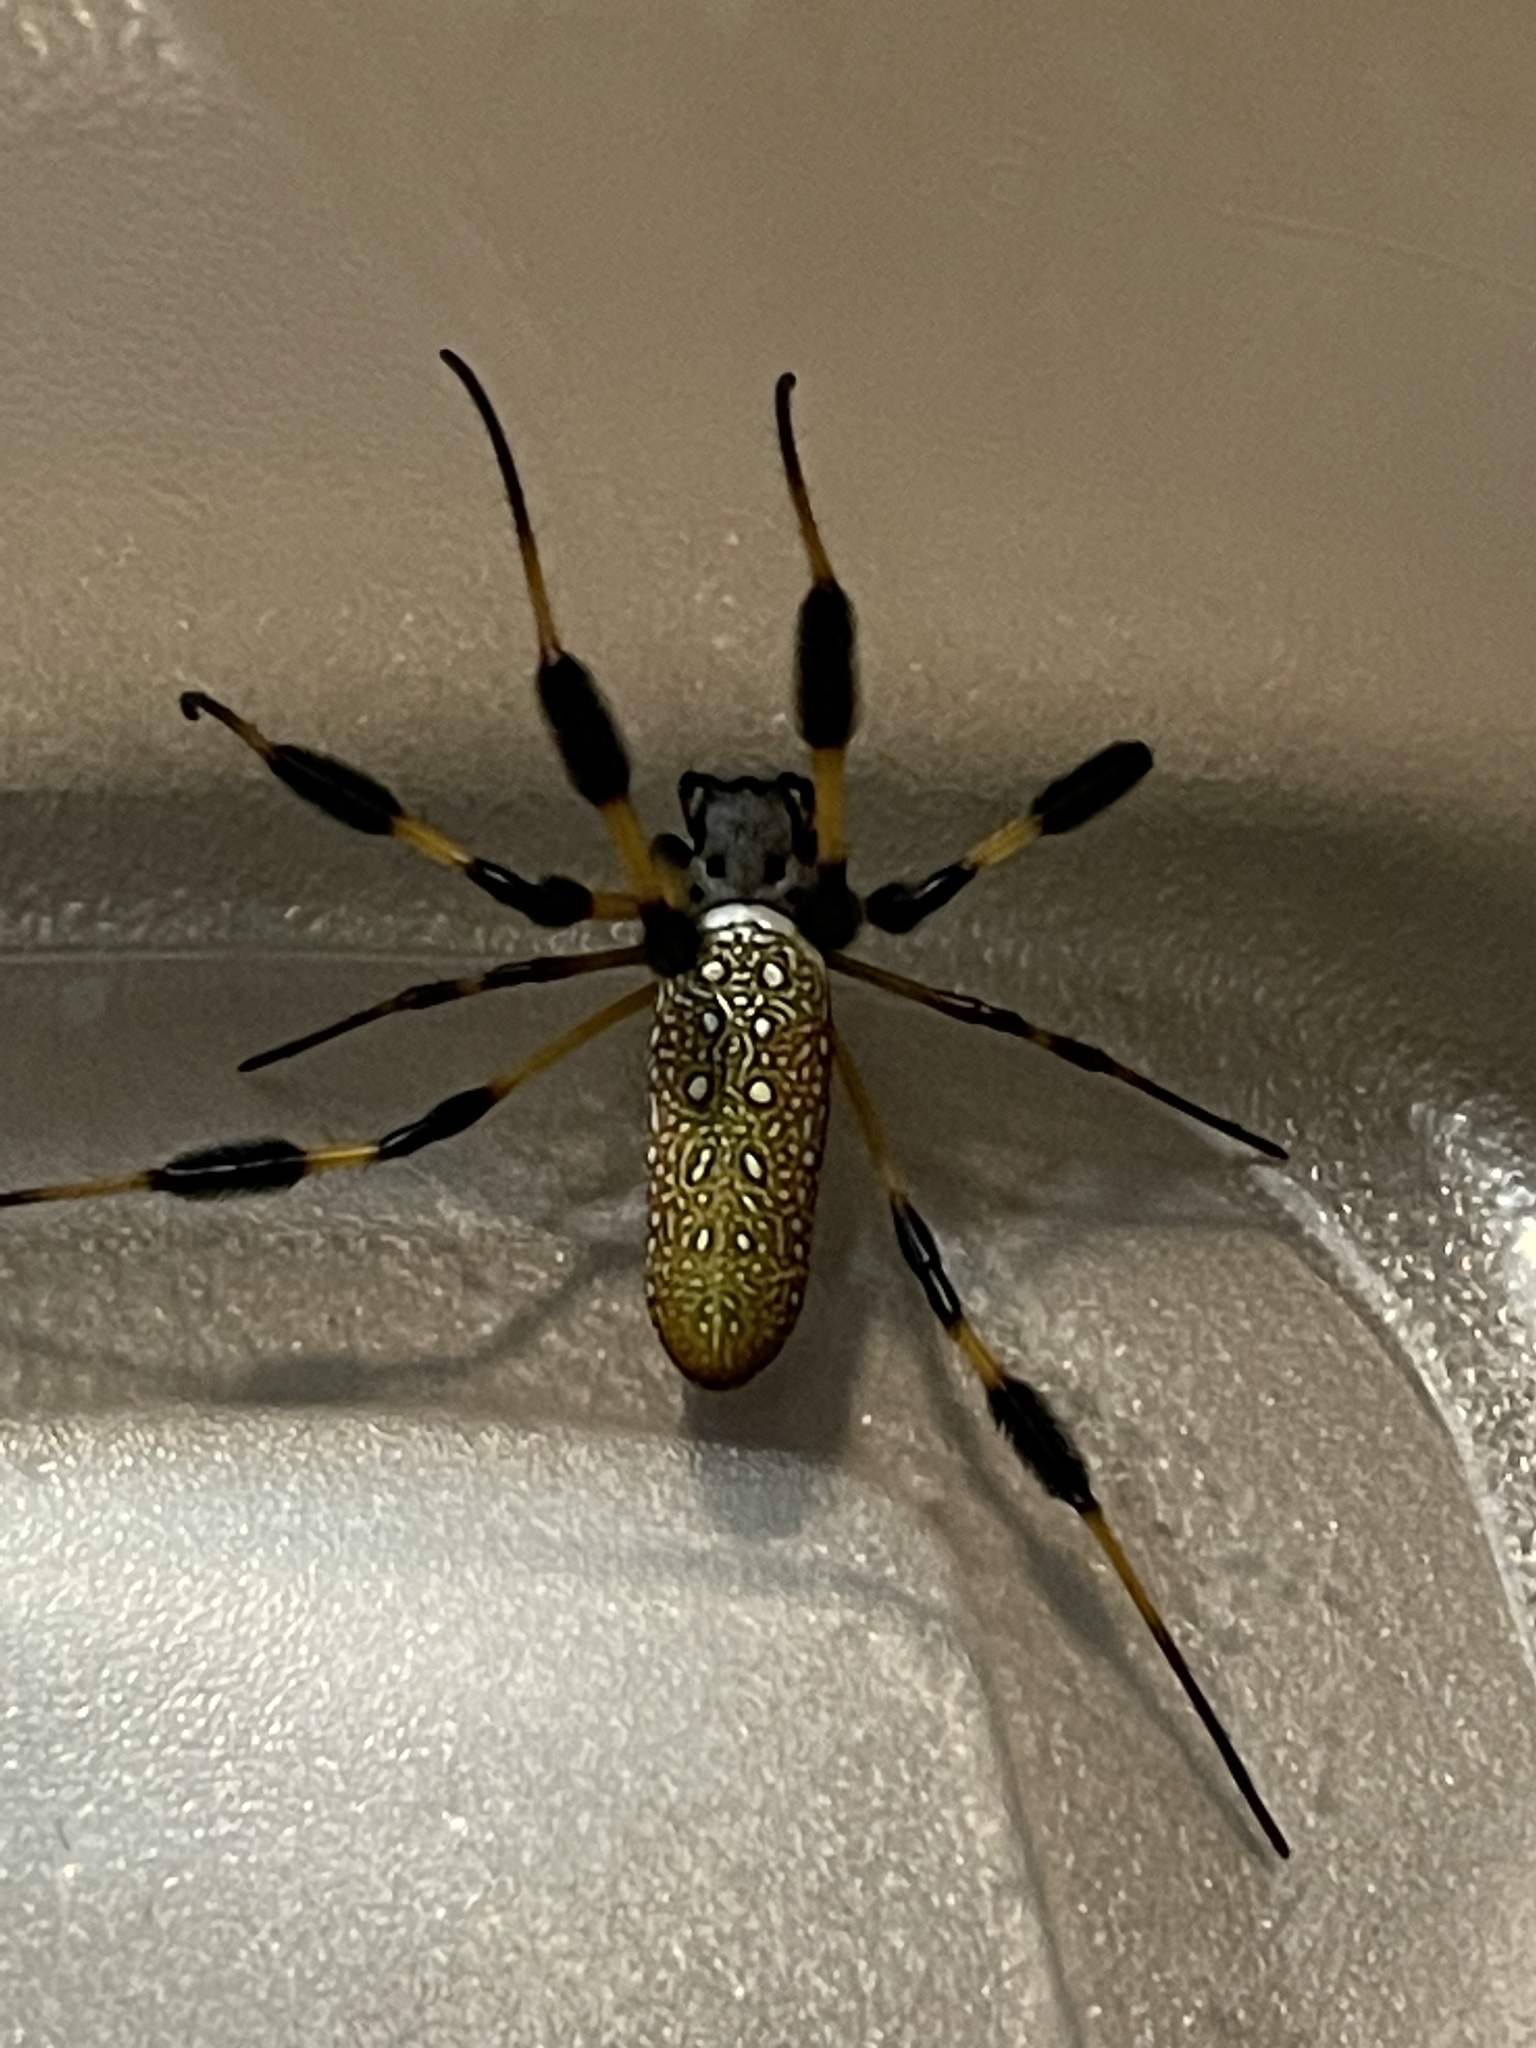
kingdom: Animalia
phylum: Arthropoda
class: Arachnida
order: Araneae
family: Araneidae
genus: Trichonephila
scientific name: Trichonephila clavipes
